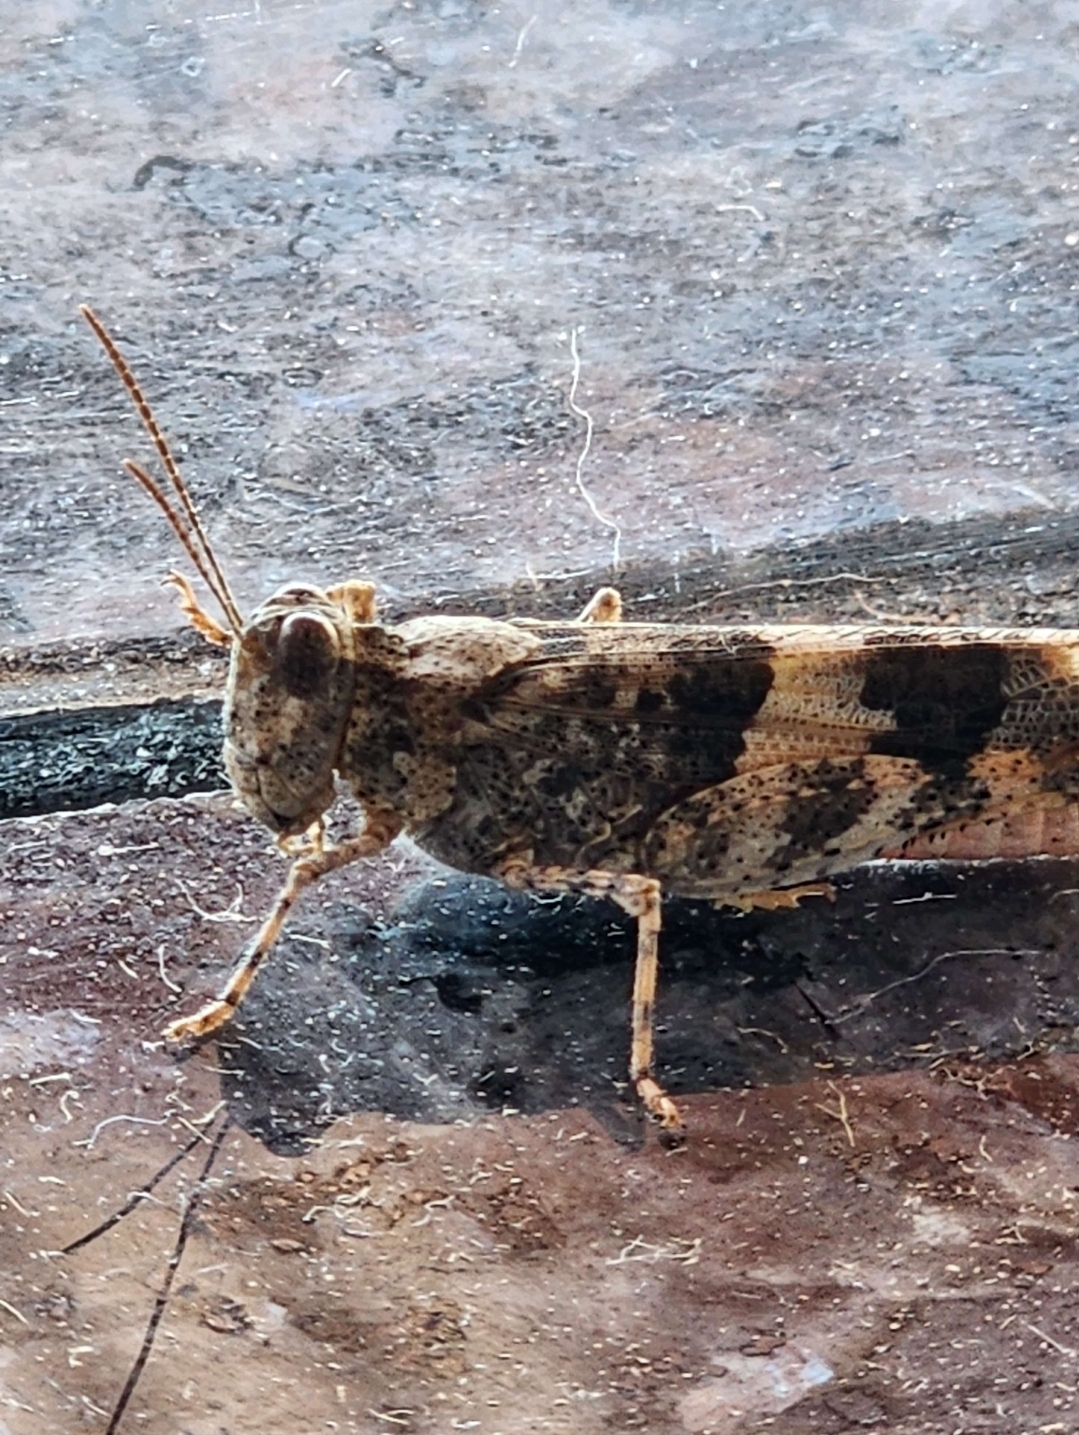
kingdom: Animalia
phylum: Arthropoda
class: Insecta
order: Orthoptera
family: Acrididae
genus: Trimerotropis
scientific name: Trimerotropis pallidipennis
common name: Pallid-winged grasshopper
